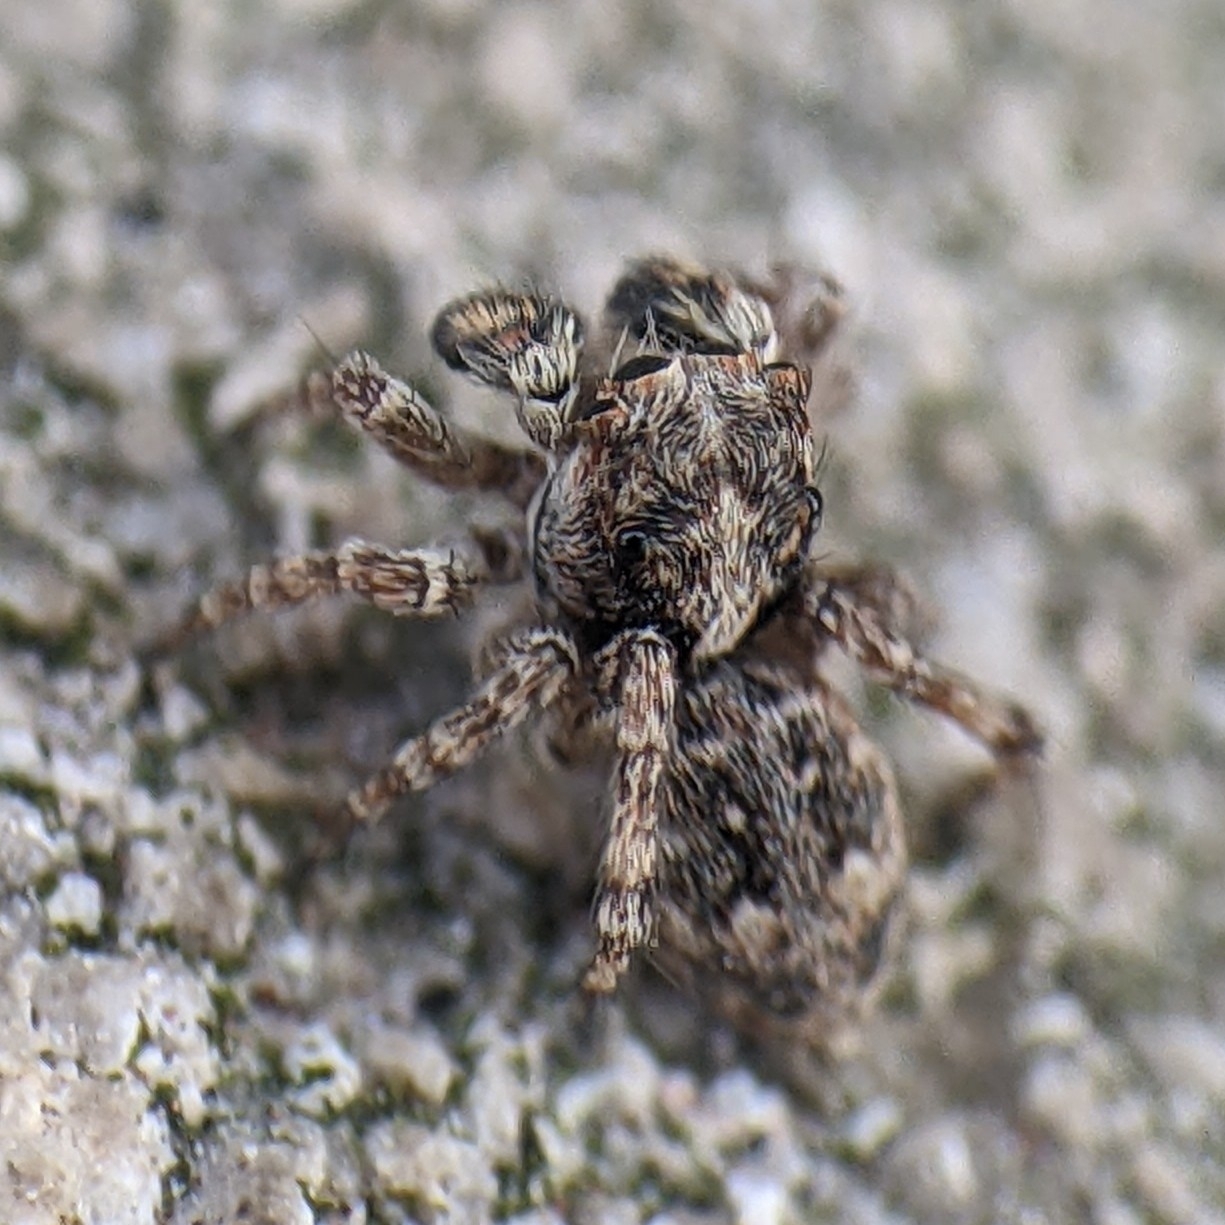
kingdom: Animalia
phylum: Arthropoda
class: Arachnida
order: Araneae
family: Salticidae
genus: Attulus
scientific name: Attulus fasciger
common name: Asiatic wall jumping spider
